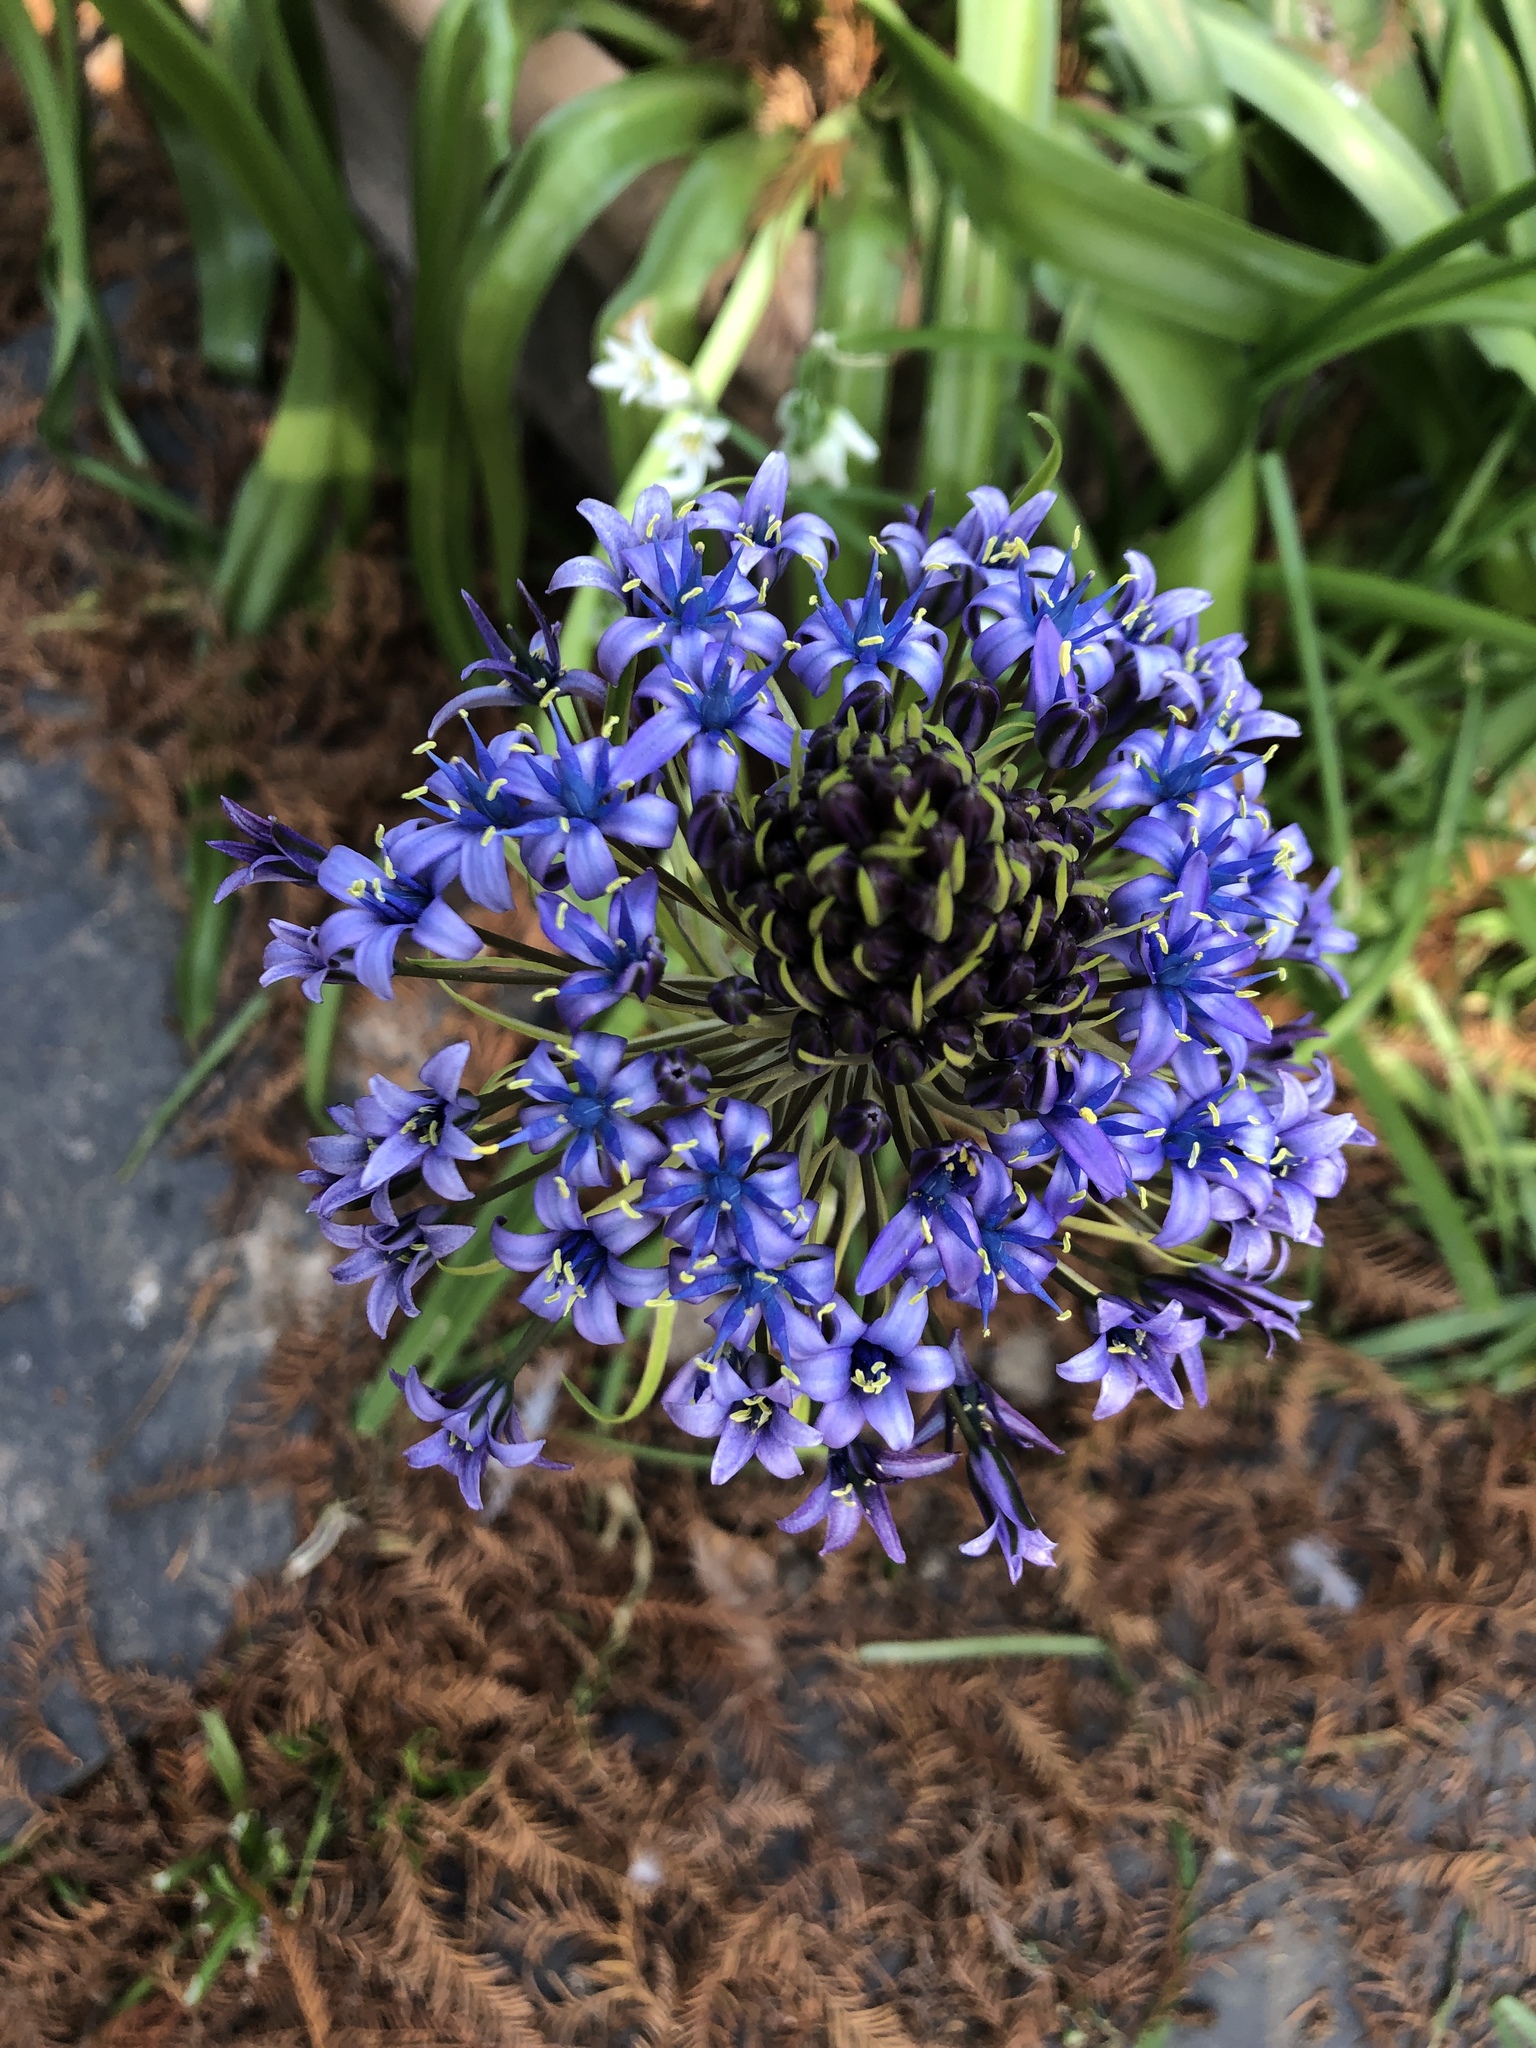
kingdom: Plantae
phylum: Tracheophyta
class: Liliopsida
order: Asparagales
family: Asparagaceae
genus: Scilla
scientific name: Scilla peruviana
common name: Portuguese squill
